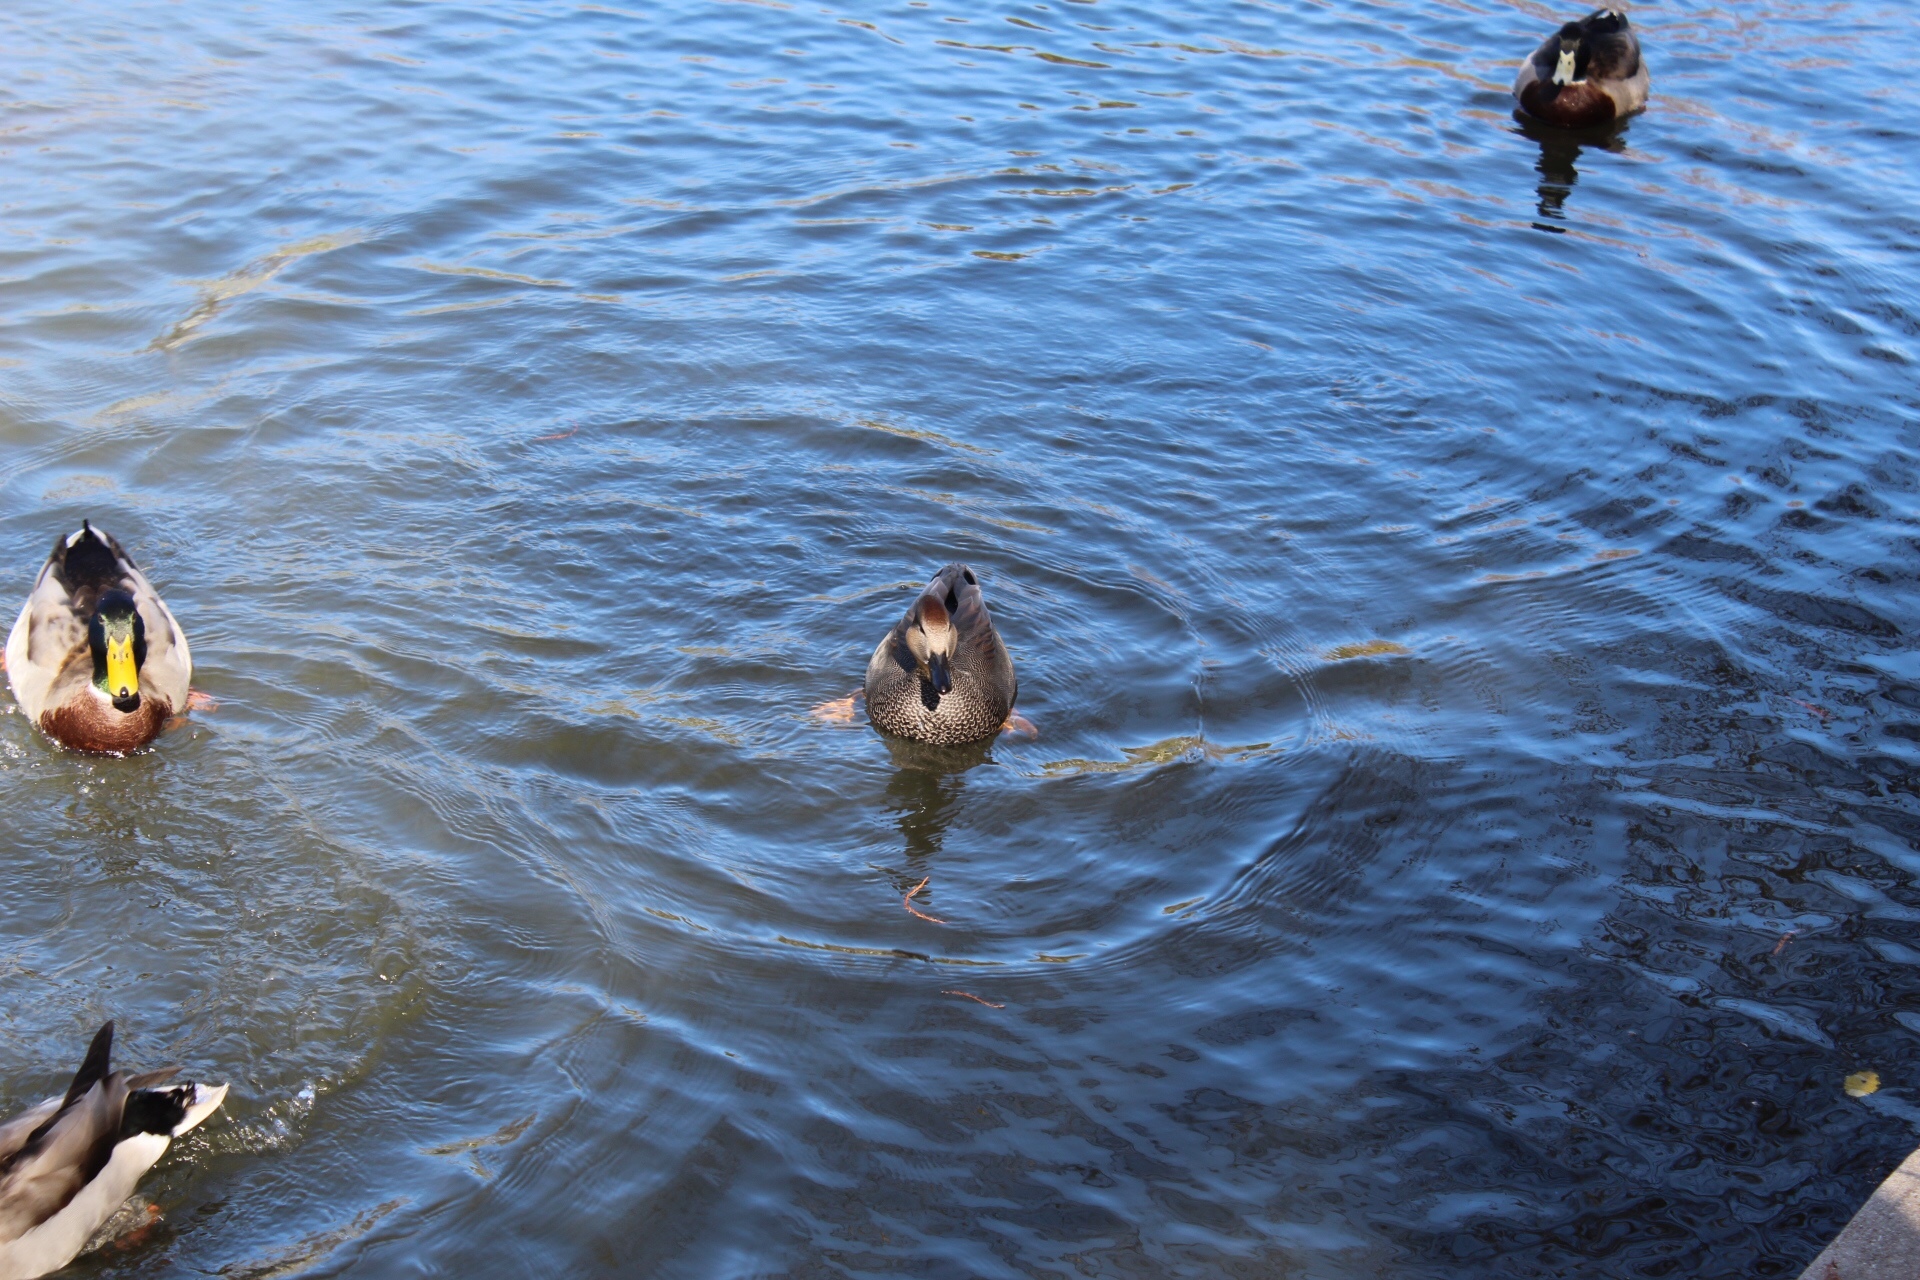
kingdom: Animalia
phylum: Chordata
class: Aves
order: Anseriformes
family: Anatidae
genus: Mareca
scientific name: Mareca strepera
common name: Gadwall
